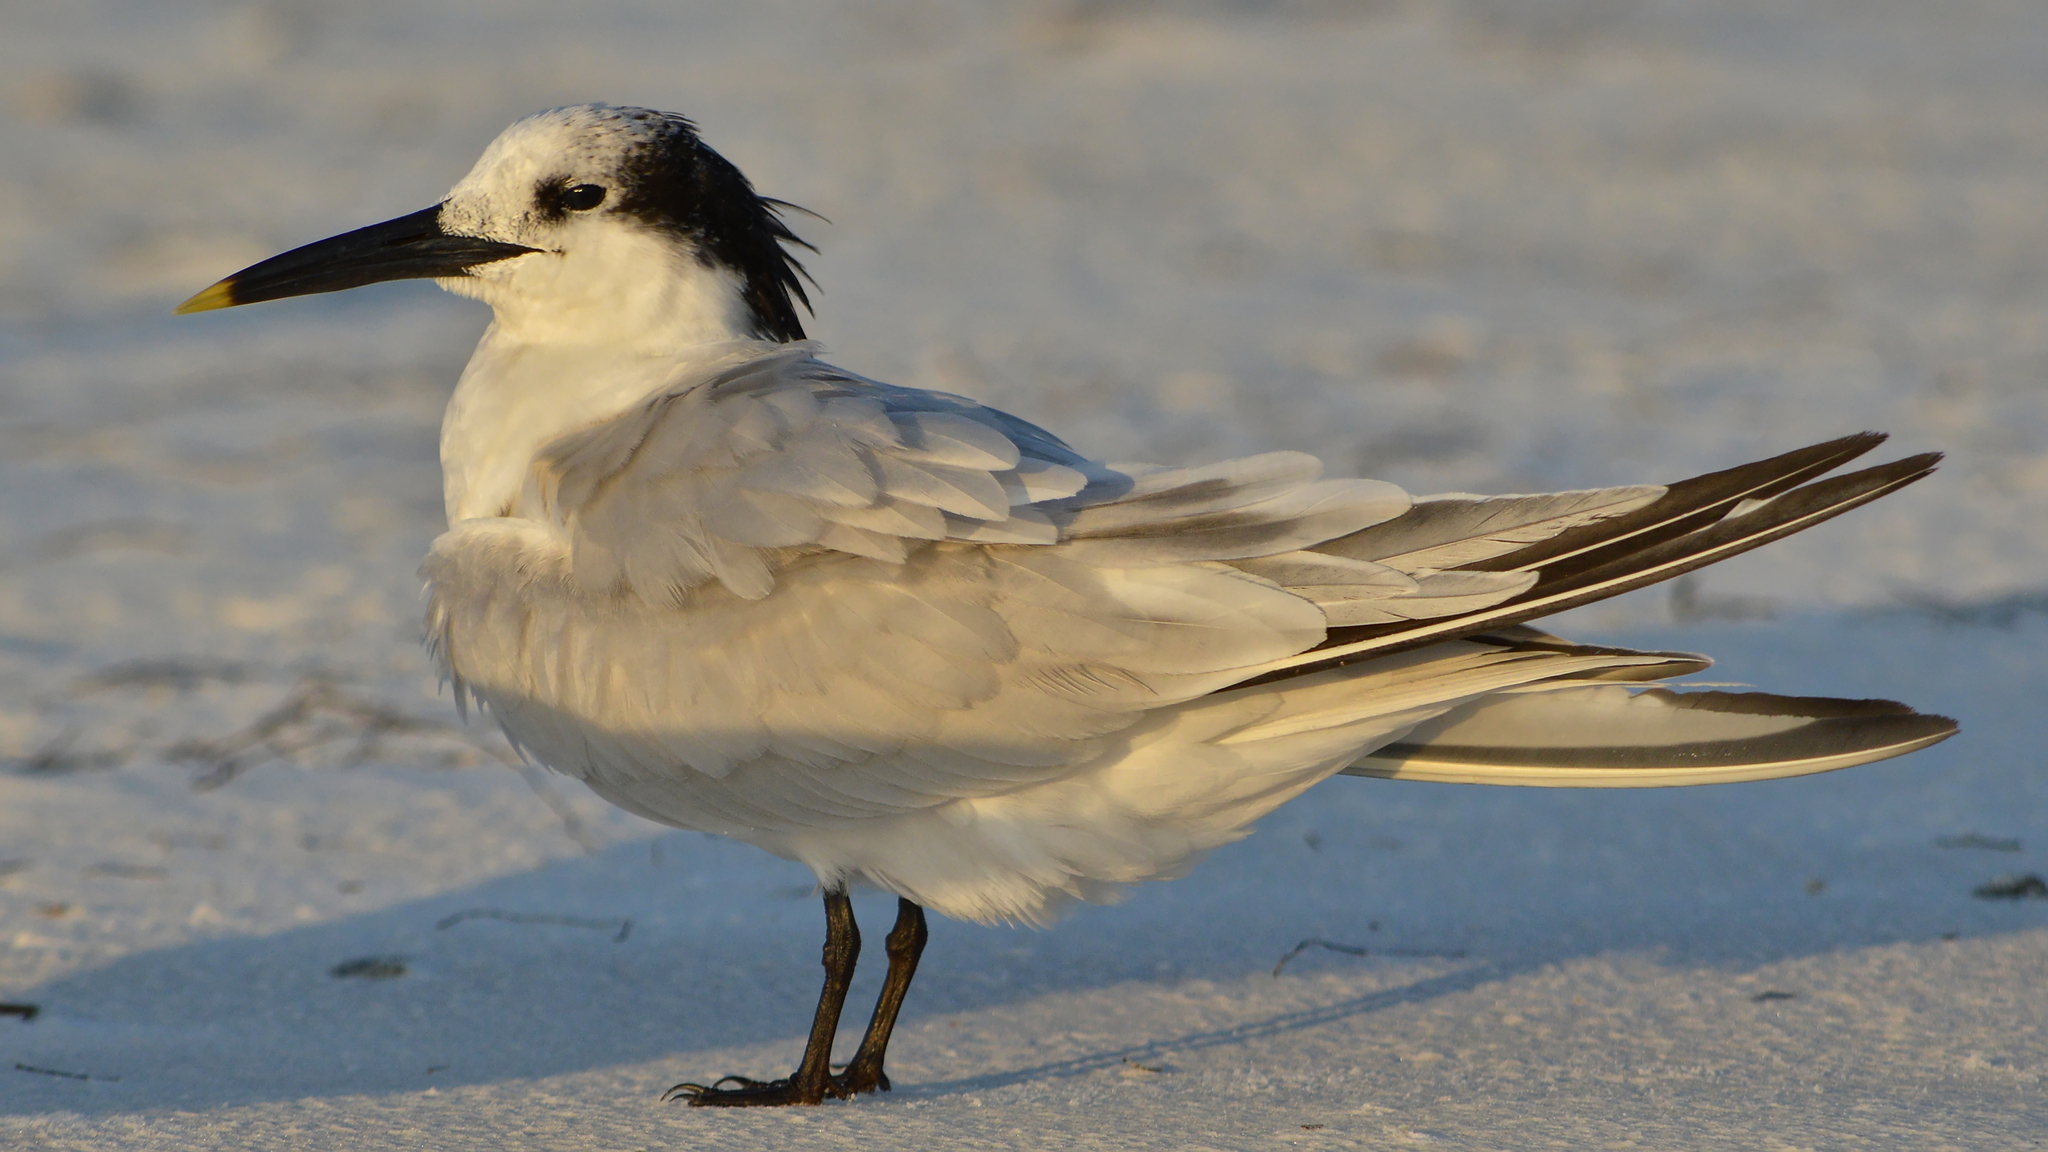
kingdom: Animalia
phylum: Chordata
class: Aves
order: Charadriiformes
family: Laridae
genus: Thalasseus
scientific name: Thalasseus sandvicensis
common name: Sandwich tern
